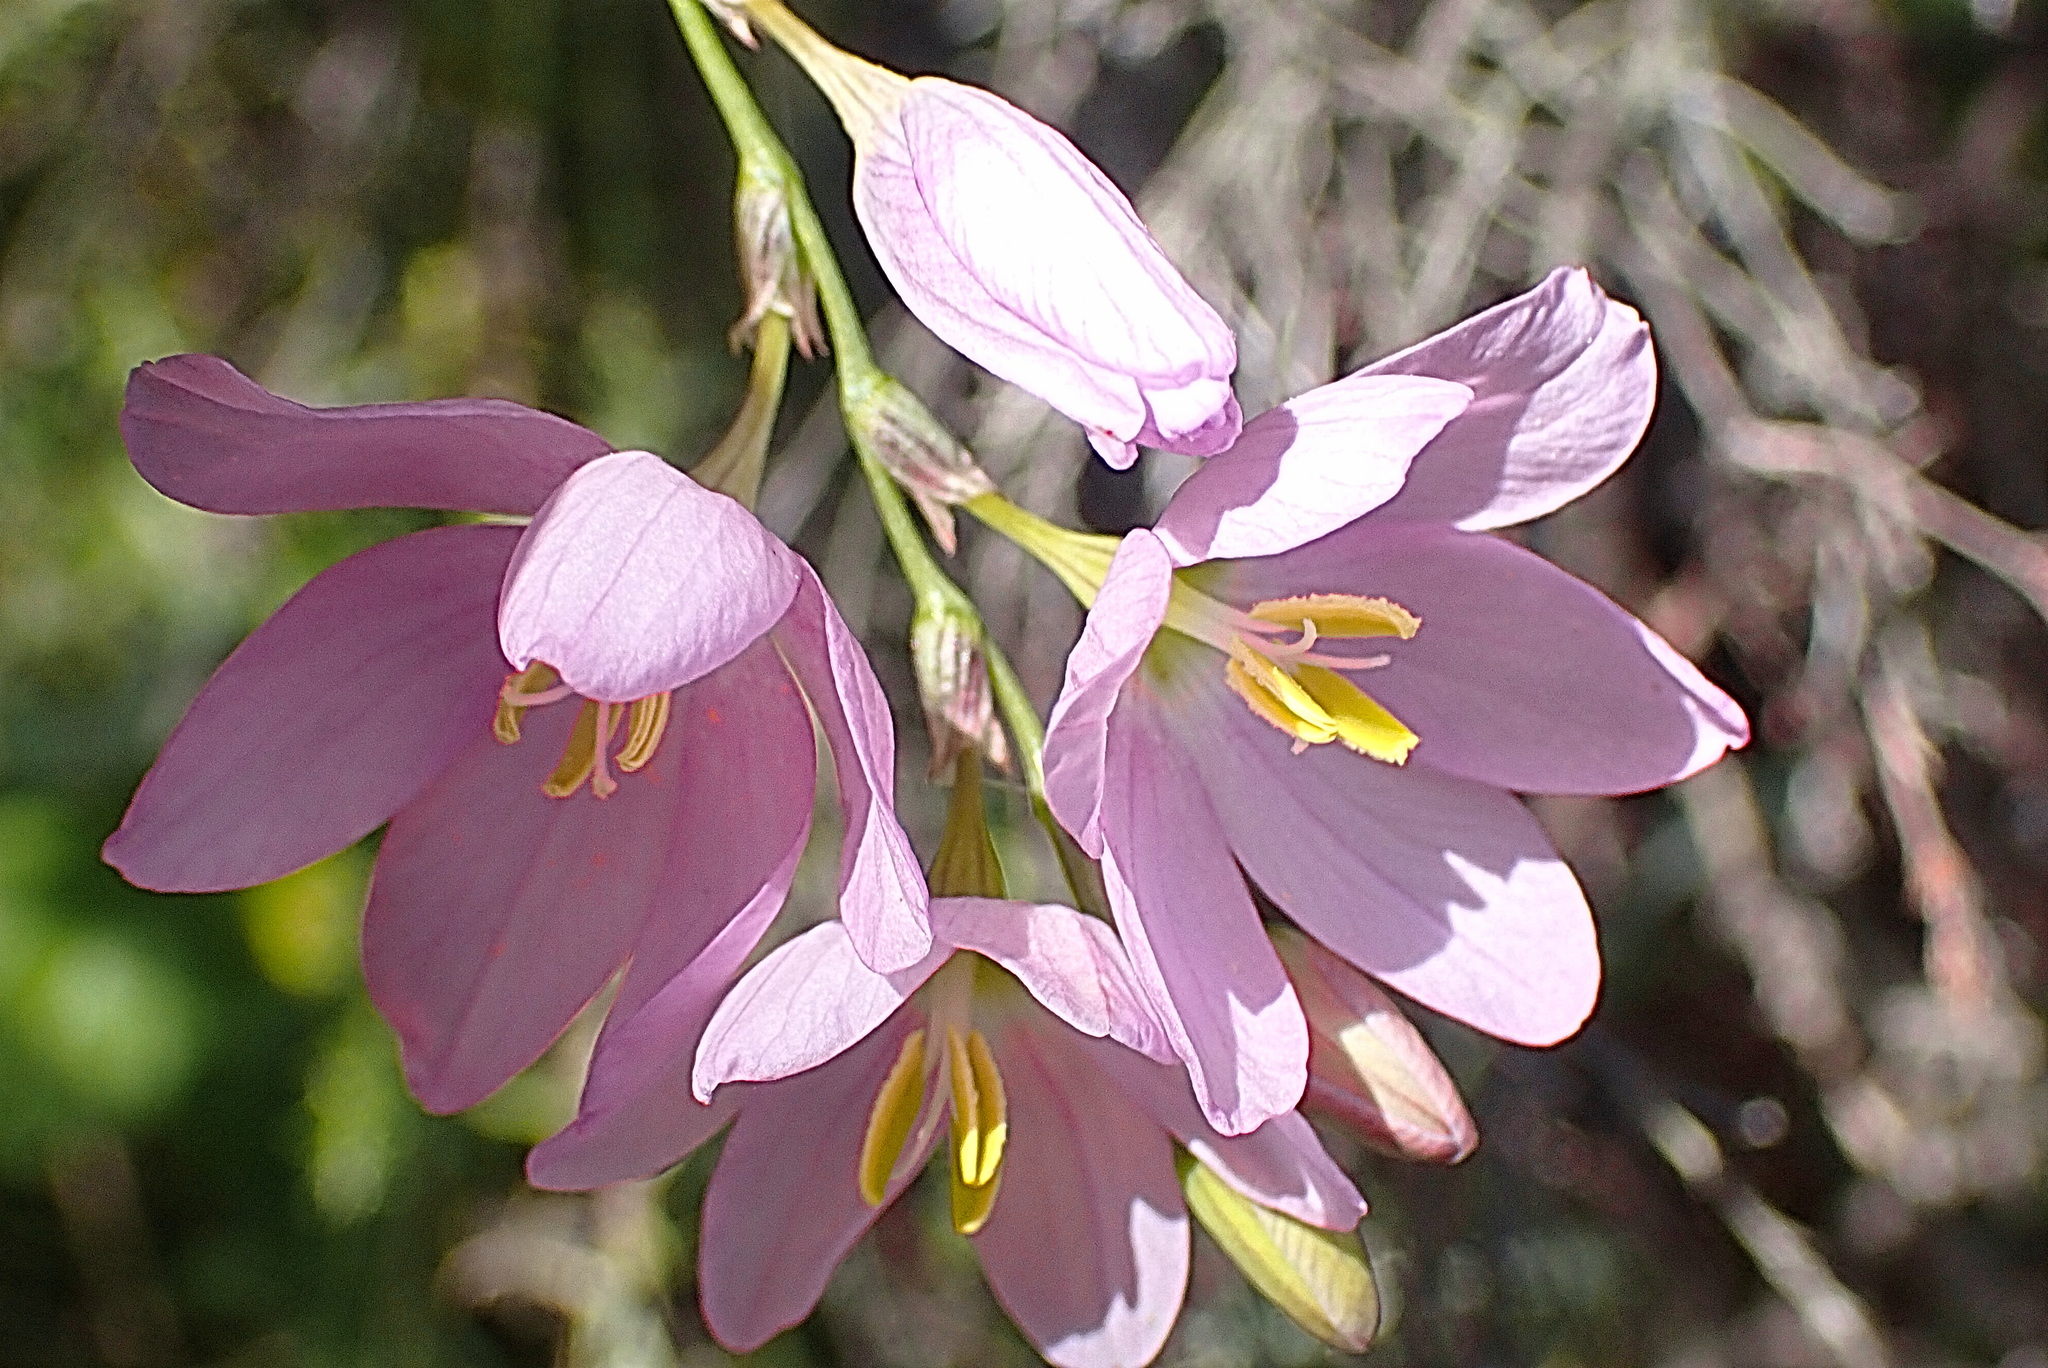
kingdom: Plantae
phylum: Tracheophyta
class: Liliopsida
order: Asparagales
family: Iridaceae
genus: Ixia
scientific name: Ixia orientalis
